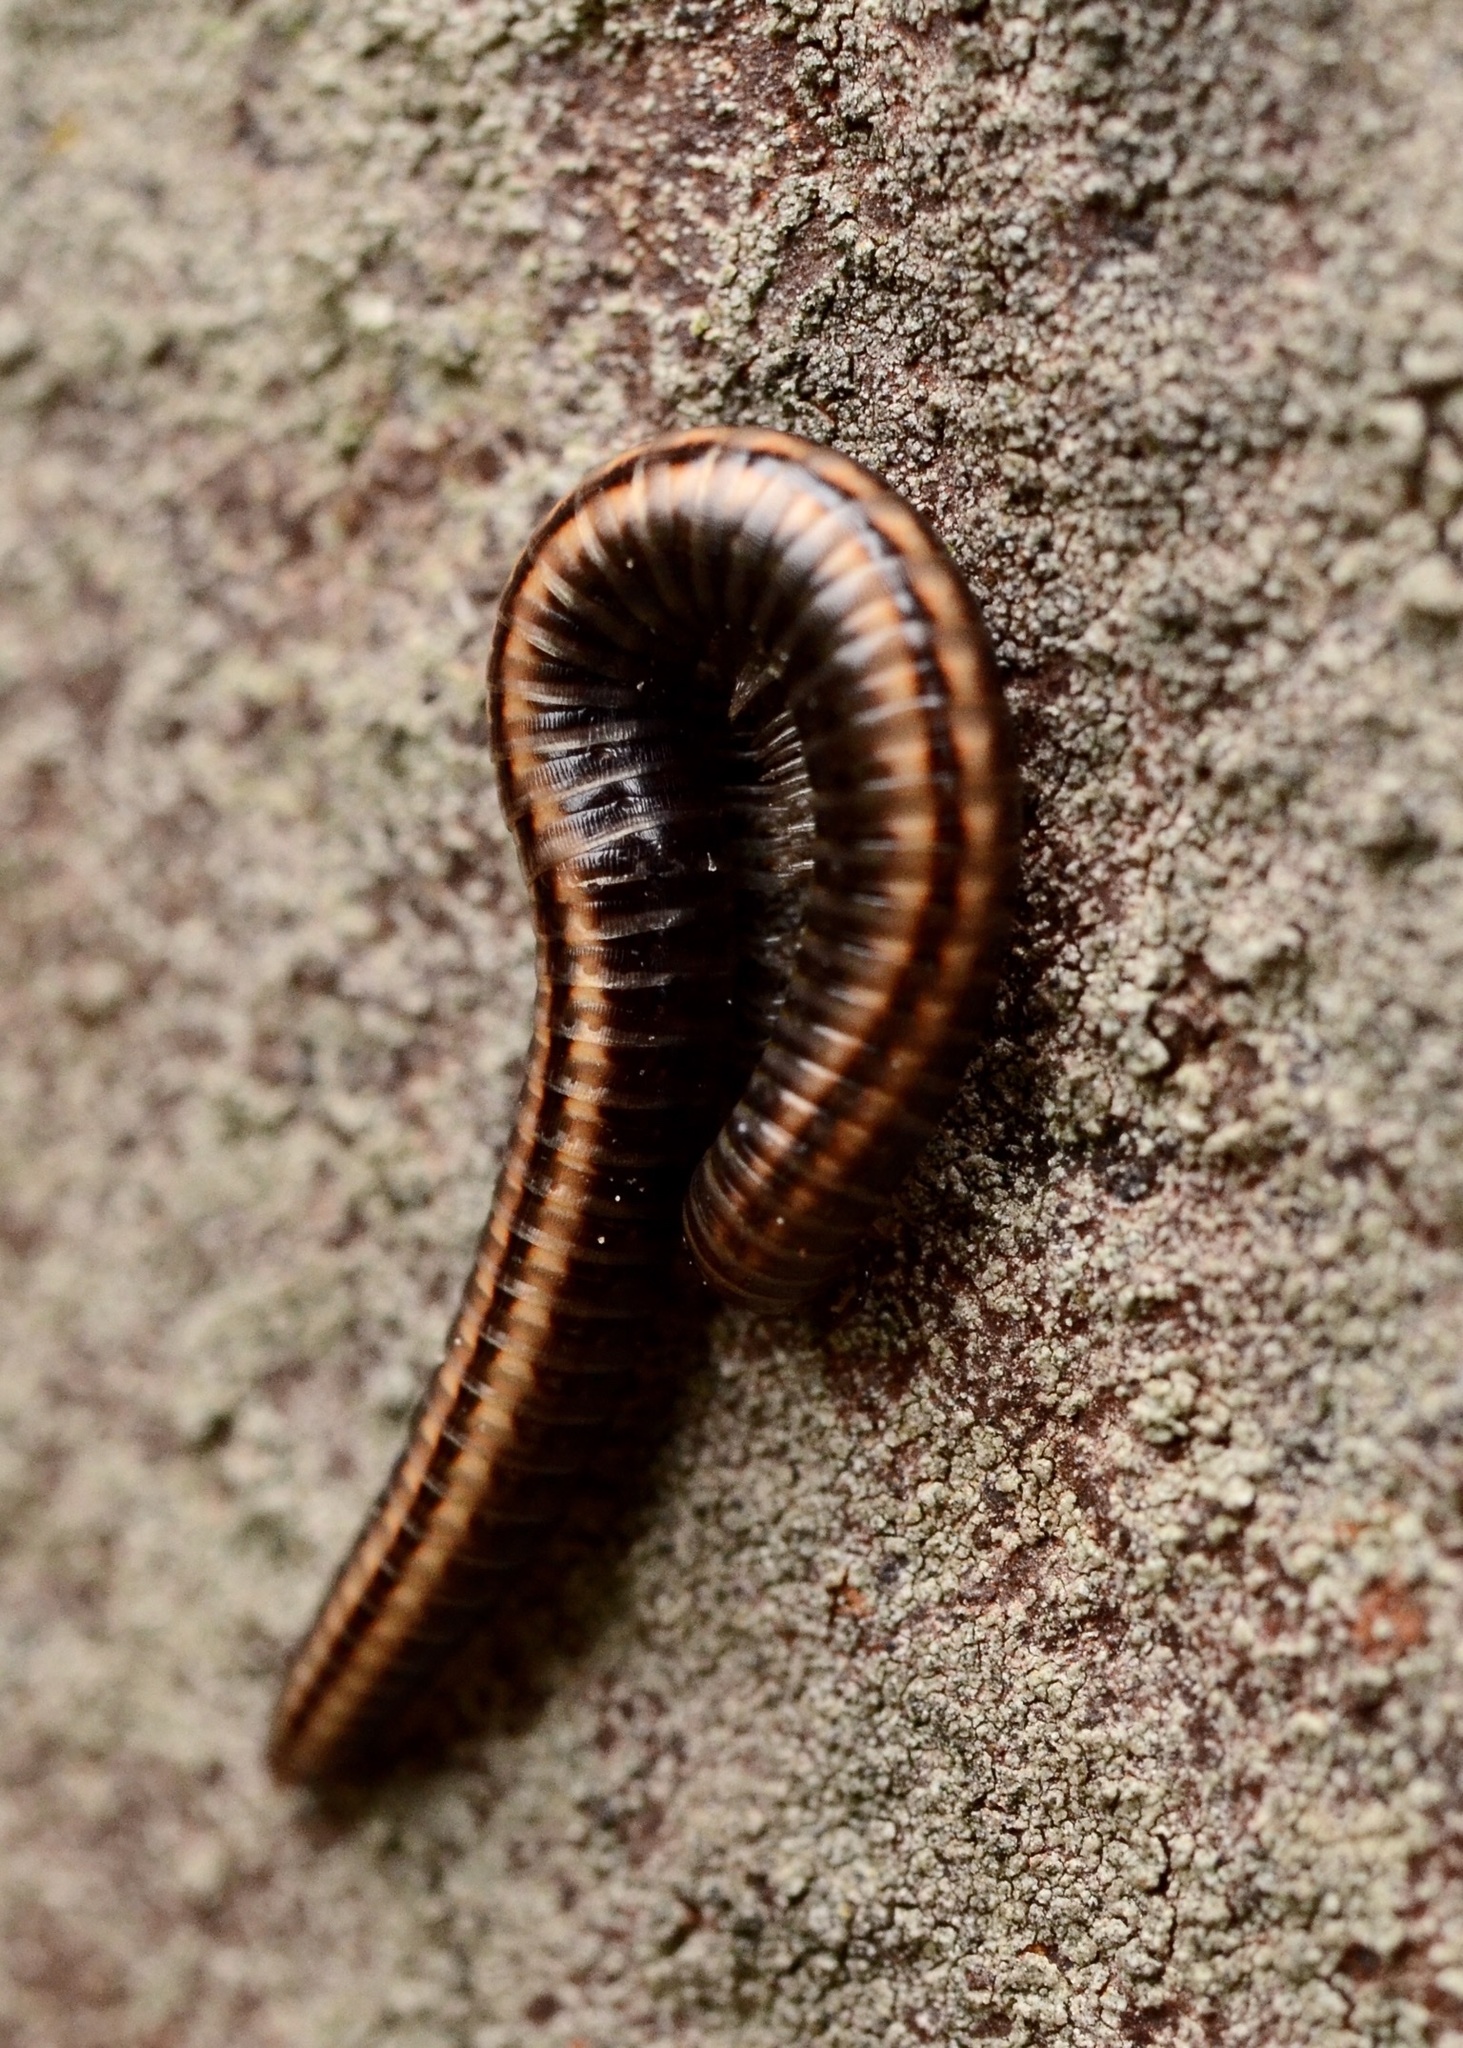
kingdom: Animalia
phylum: Arthropoda
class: Diplopoda
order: Julida
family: Julidae
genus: Ommatoiulus
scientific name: Ommatoiulus sabulosus
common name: Striped millipede
